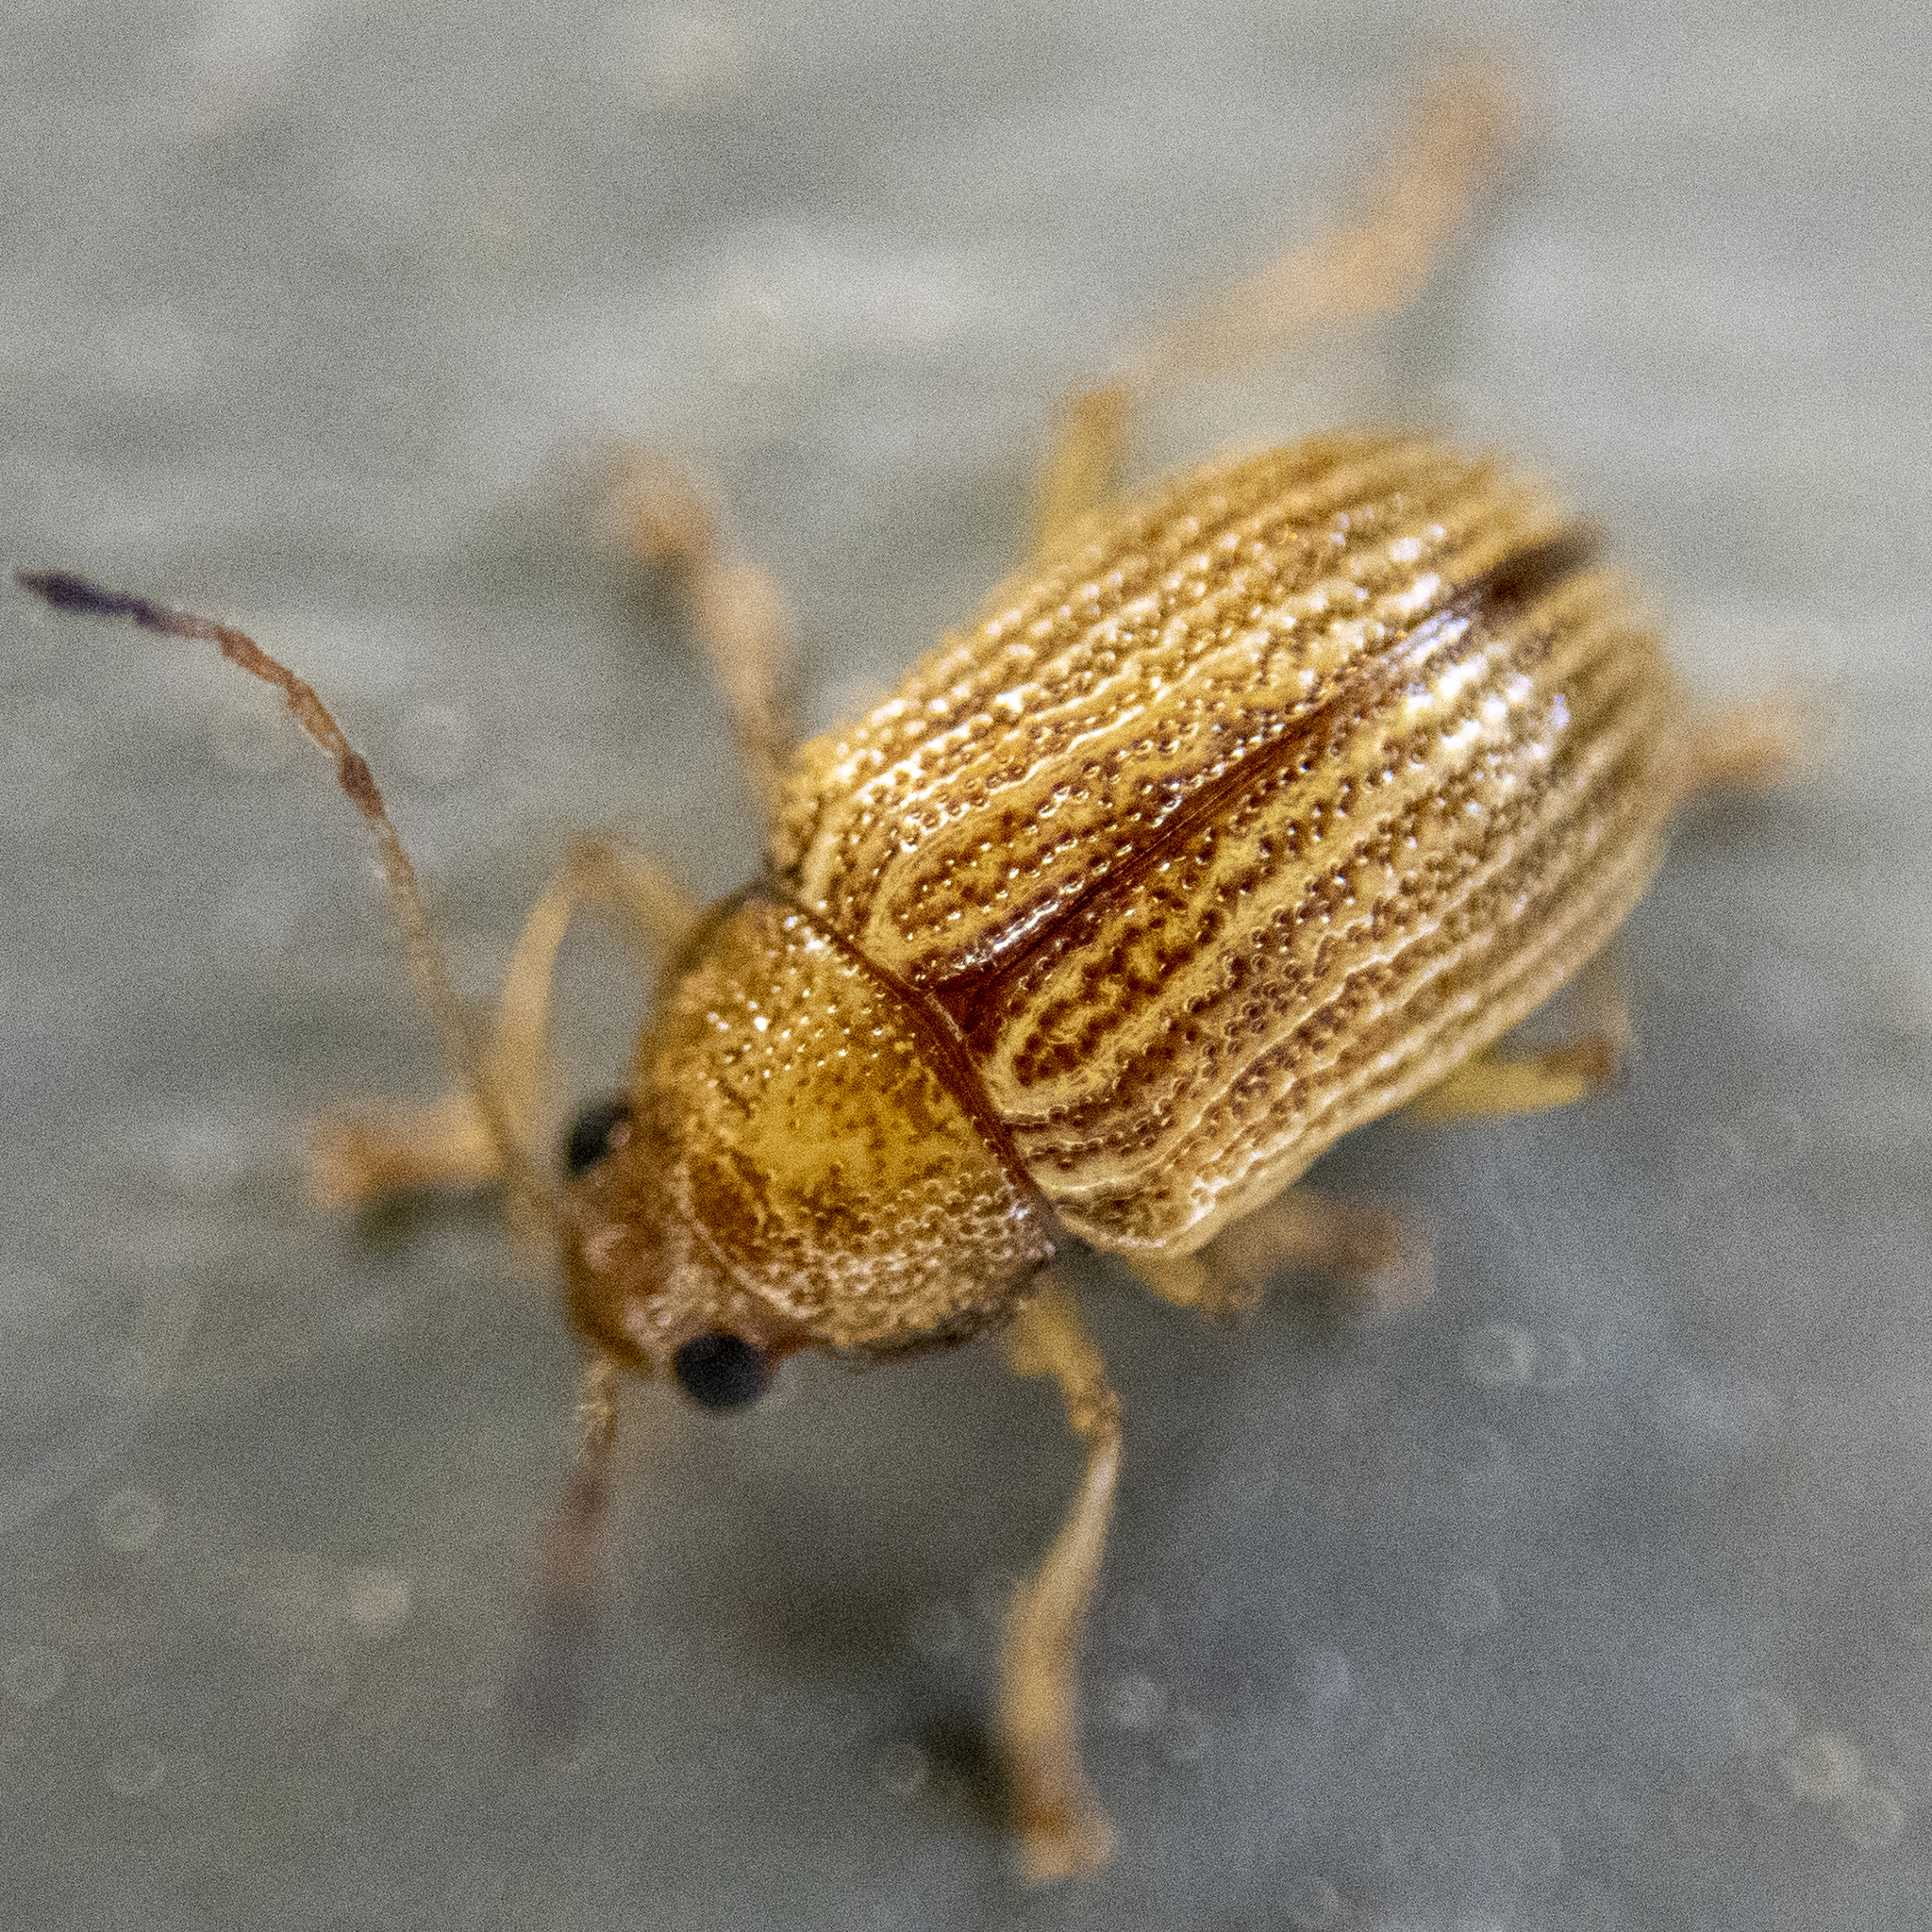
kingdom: Animalia
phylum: Arthropoda
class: Insecta
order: Coleoptera
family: Chrysomelidae
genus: Colaspis
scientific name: Colaspis brunnea
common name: Grape colaspis
